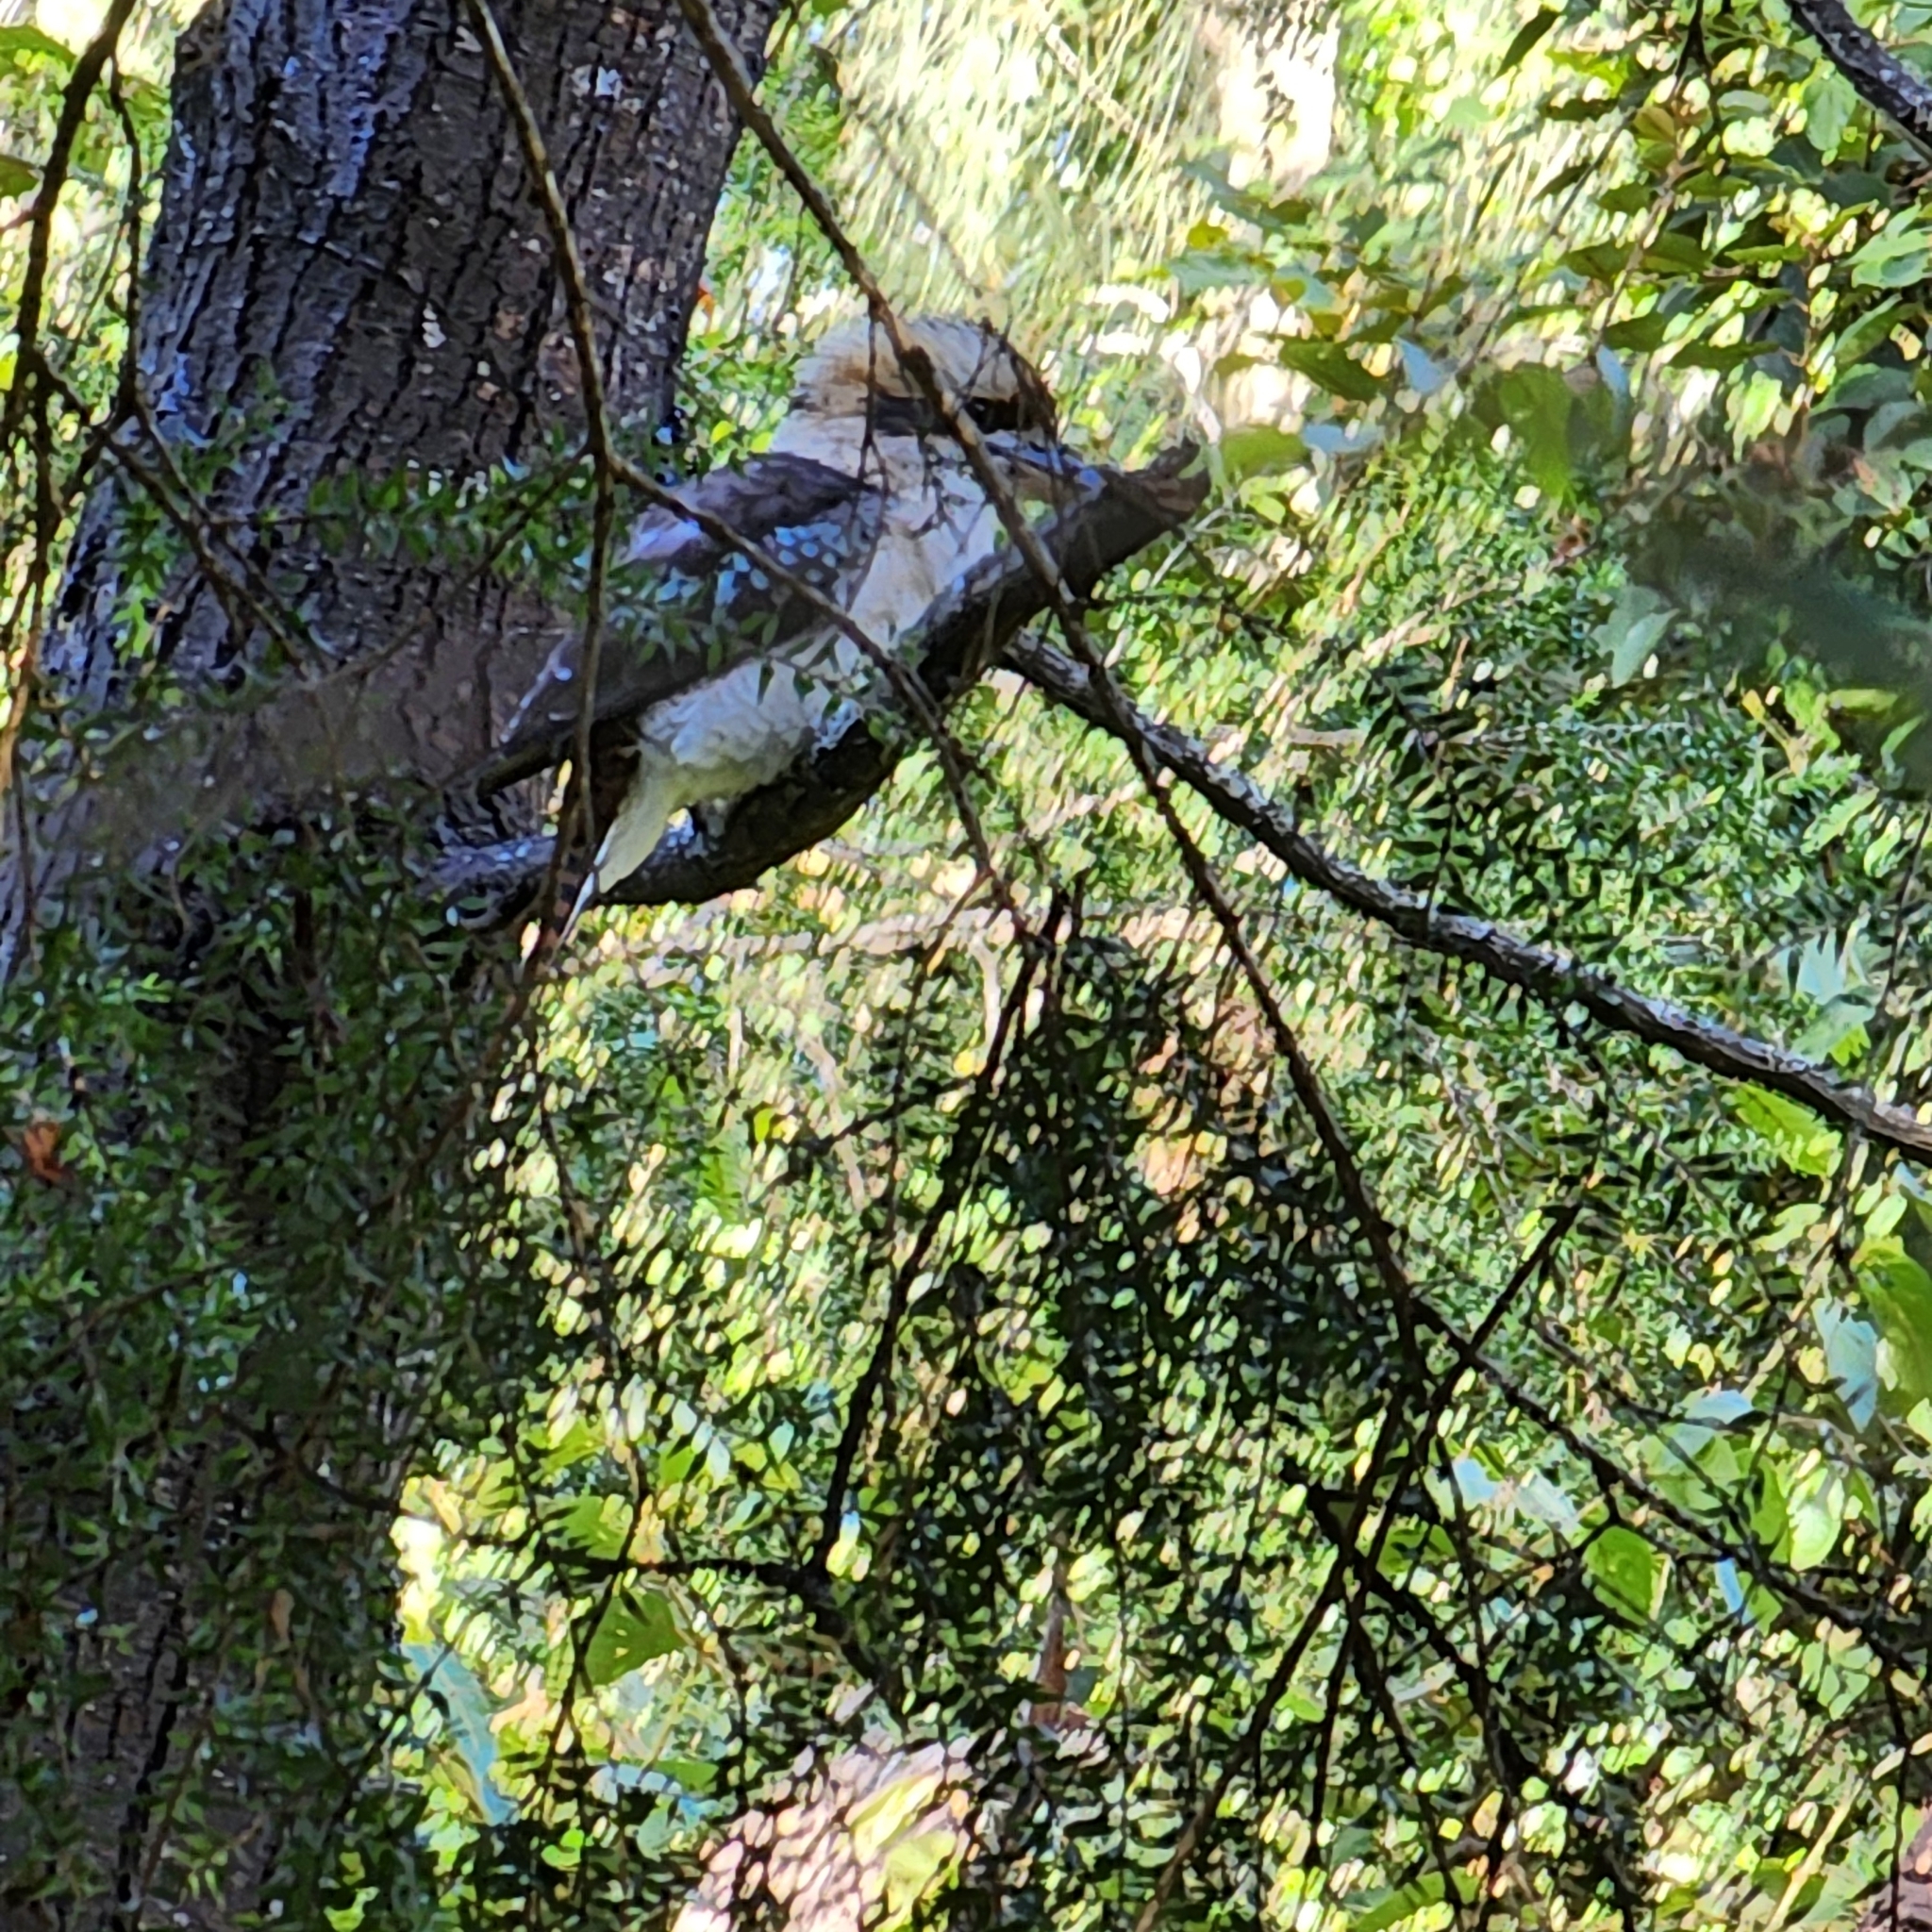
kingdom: Animalia
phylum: Chordata
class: Aves
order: Coraciiformes
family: Alcedinidae
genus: Dacelo
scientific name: Dacelo novaeguineae
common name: Laughing kookaburra
